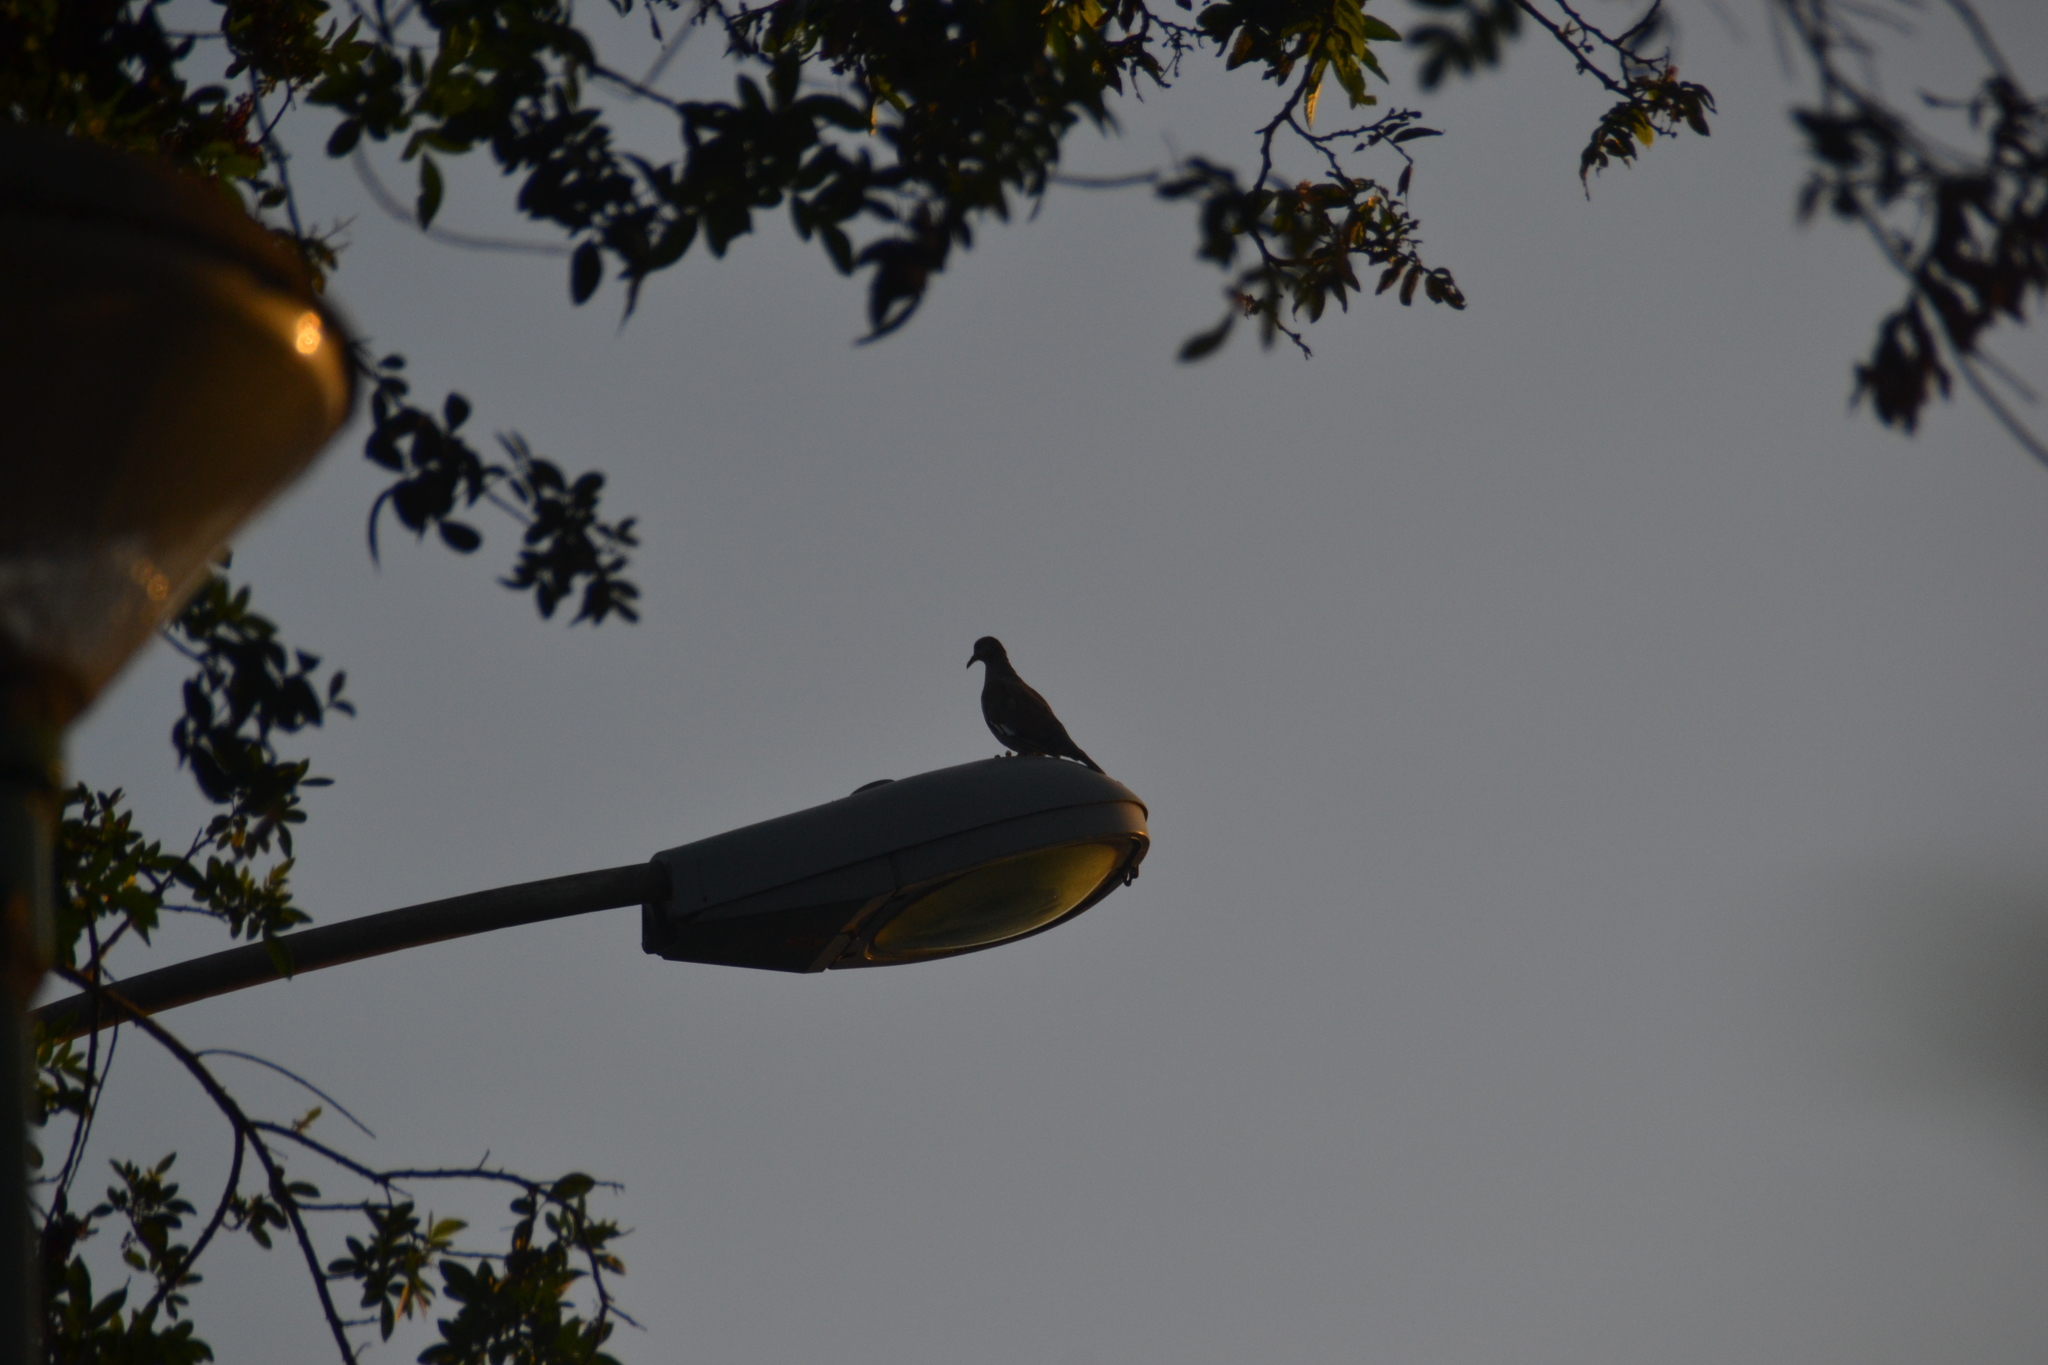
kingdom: Animalia
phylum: Chordata
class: Aves
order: Columbiformes
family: Columbidae
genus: Zenaida
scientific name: Zenaida meloda
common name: West peruvian dove
